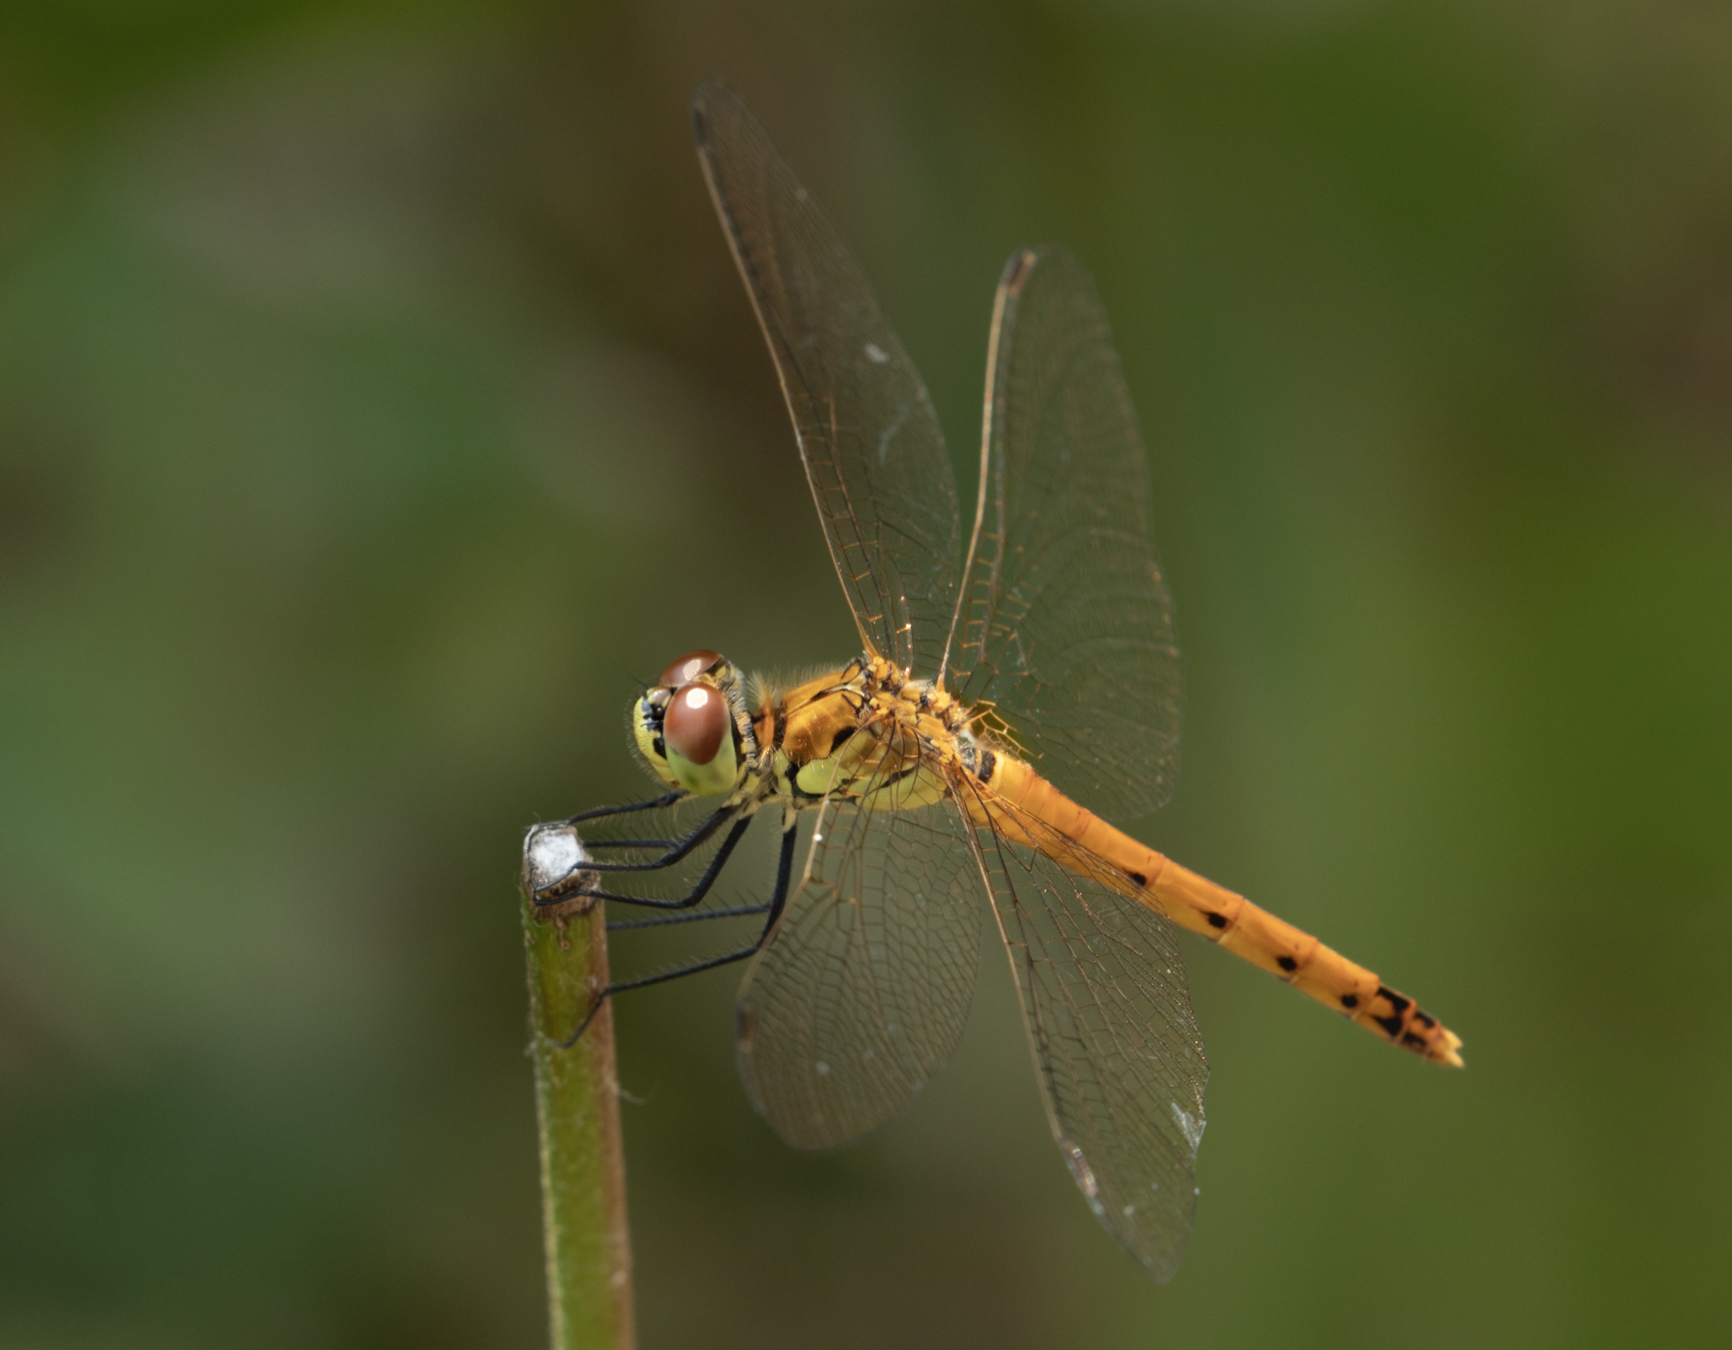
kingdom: Animalia
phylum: Arthropoda
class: Insecta
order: Odonata
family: Libellulidae
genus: Sympetrum
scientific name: Sympetrum depressiusculum
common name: Spotted darter
